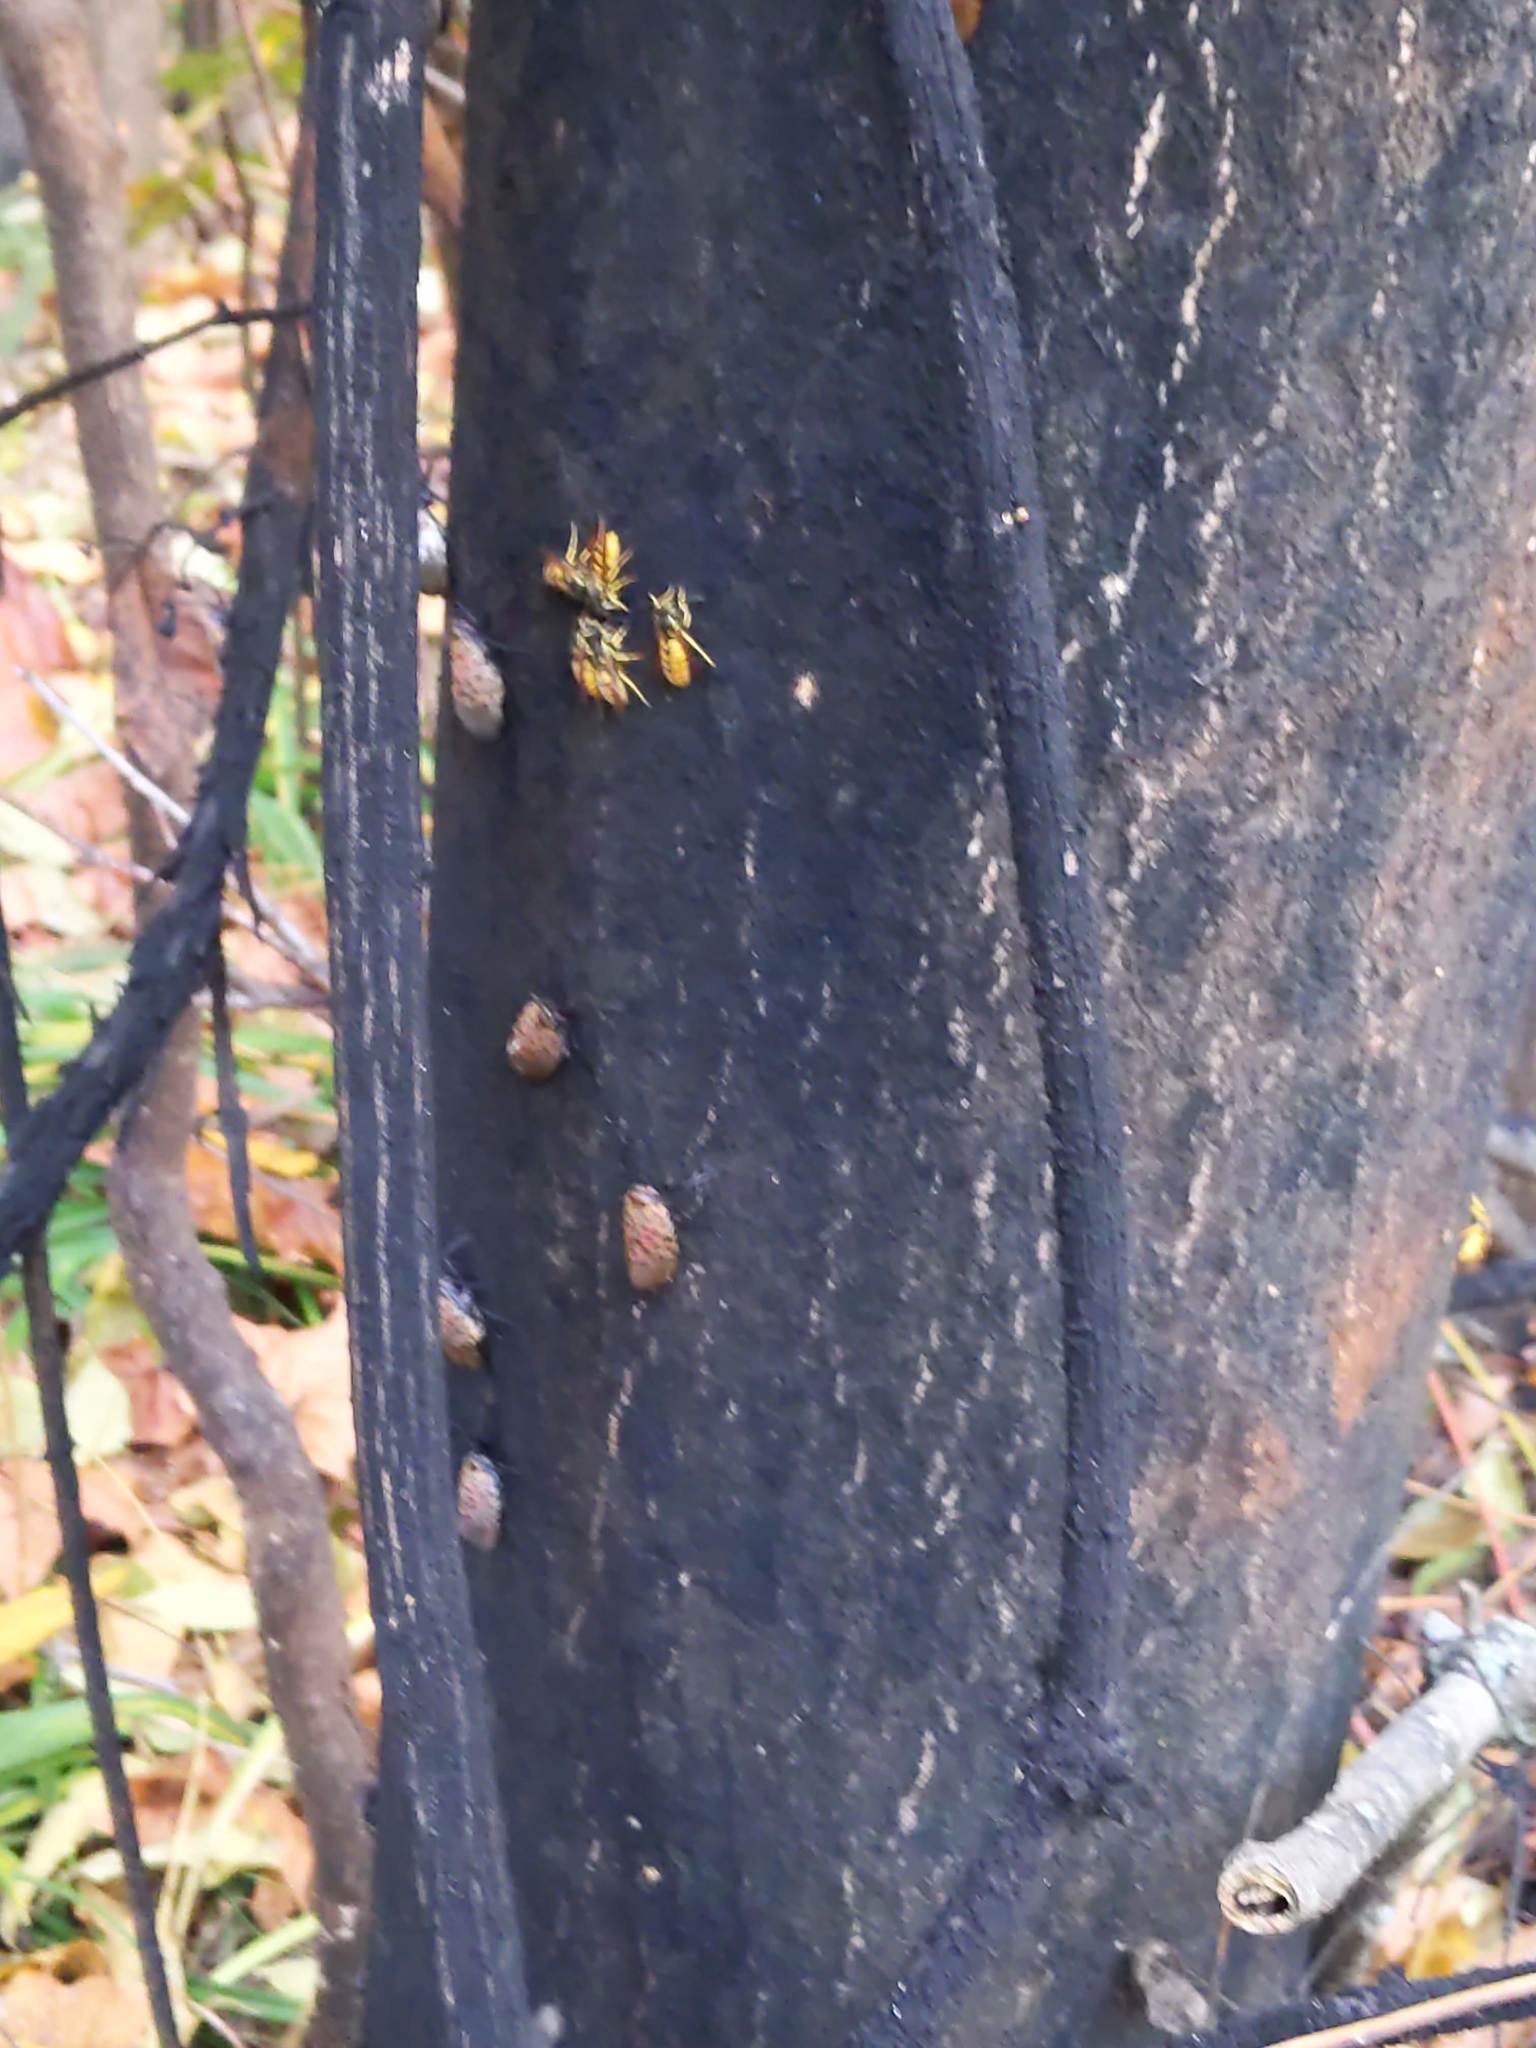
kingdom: Animalia
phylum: Arthropoda
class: Insecta
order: Hymenoptera
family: Vespidae
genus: Vespula
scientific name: Vespula germanica
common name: German wasp
